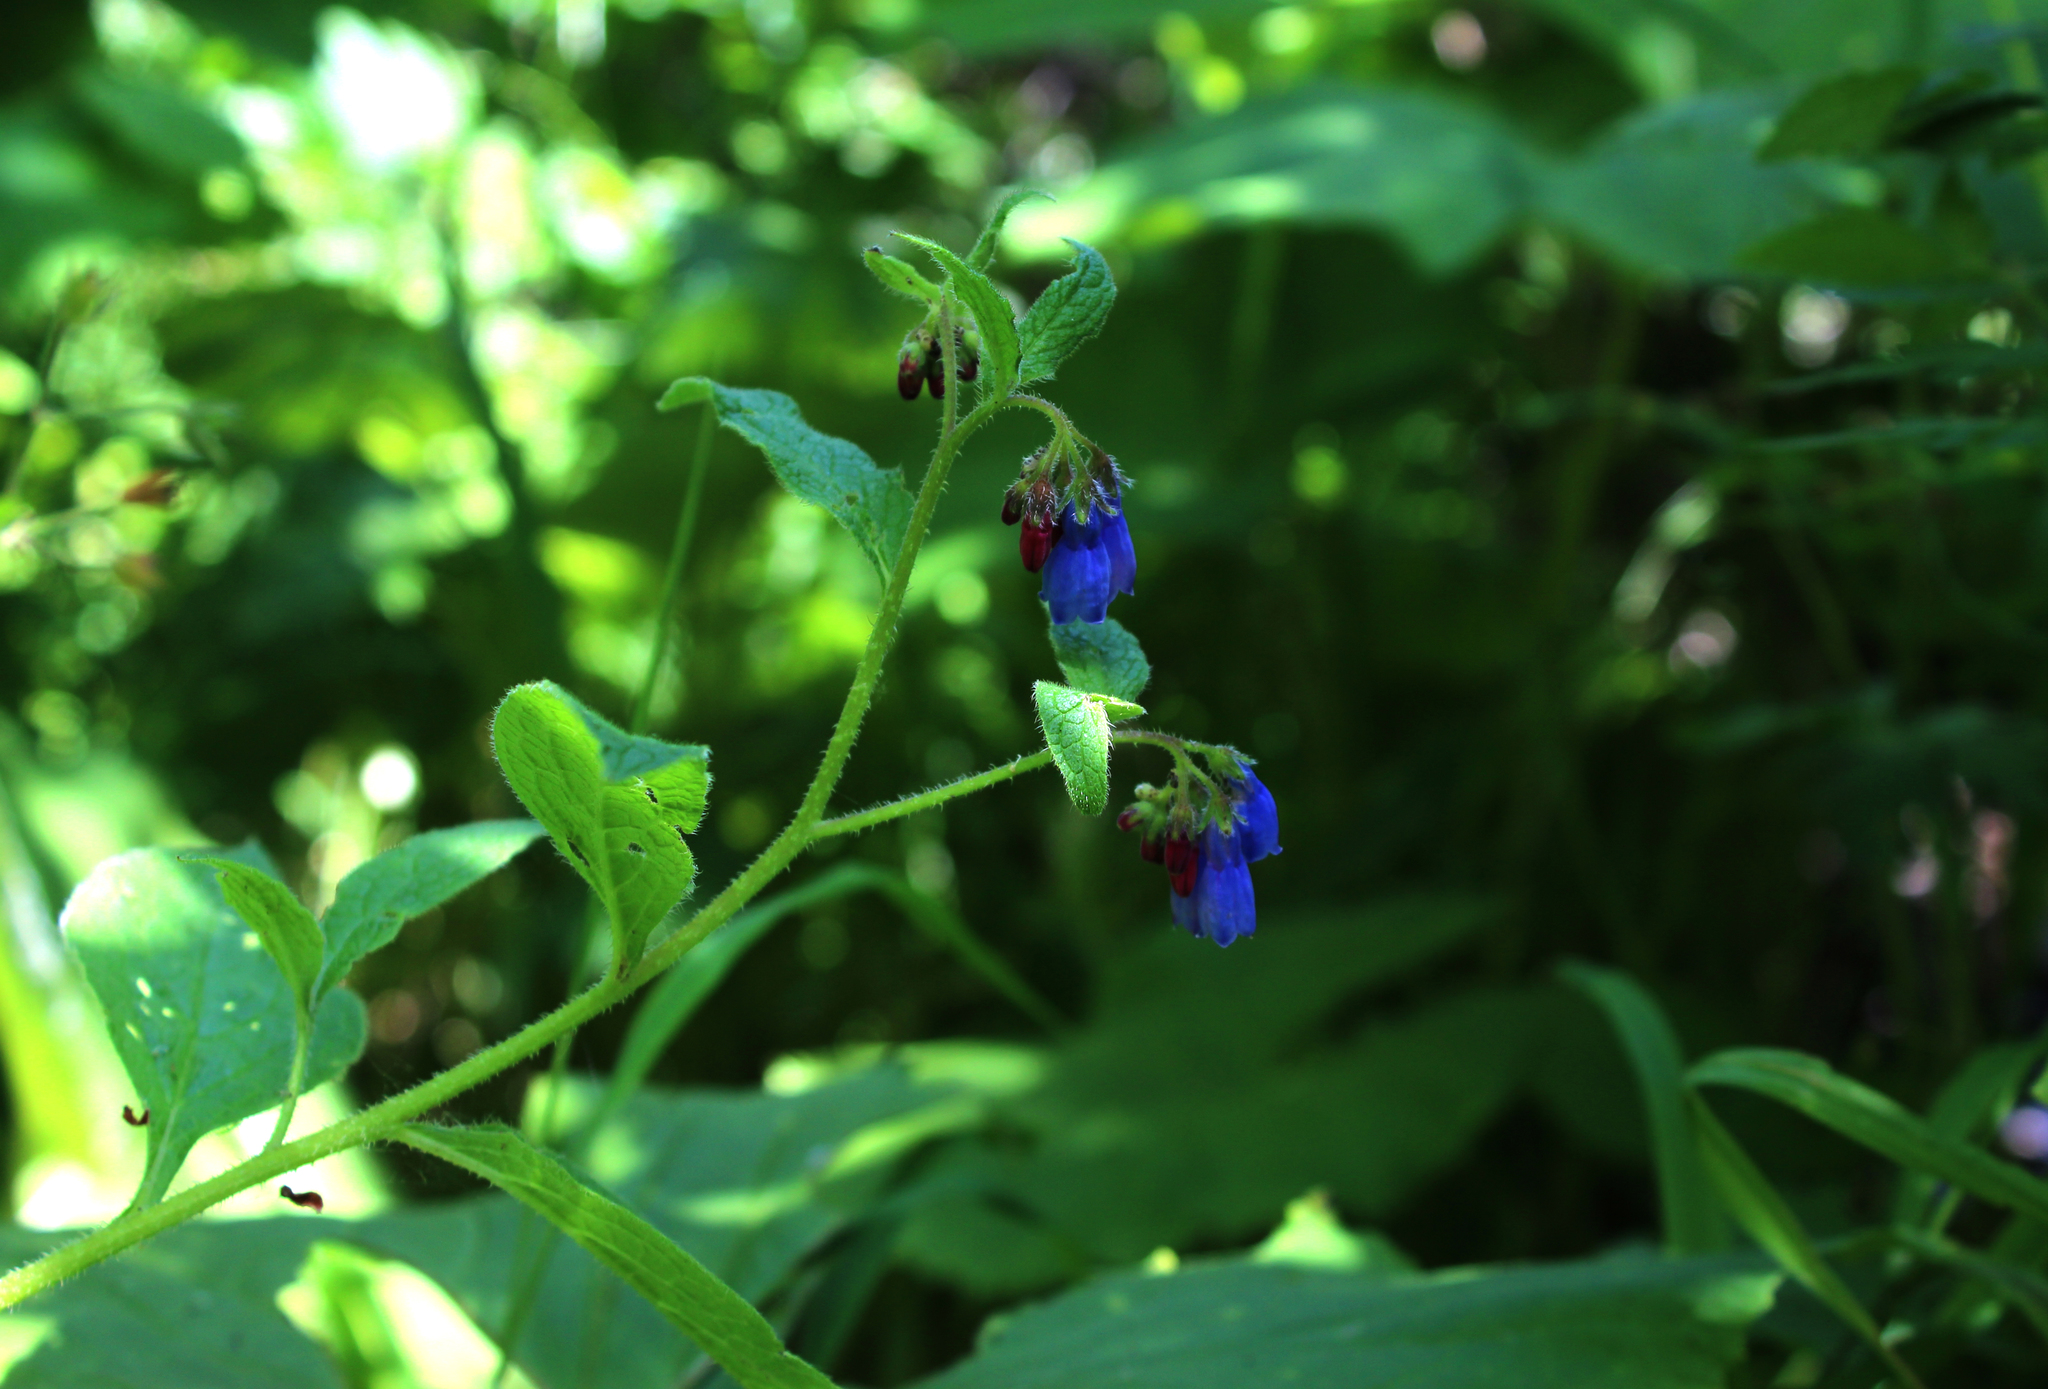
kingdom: Plantae
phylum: Tracheophyta
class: Magnoliopsida
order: Boraginales
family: Boraginaceae
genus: Symphytum
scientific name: Symphytum asperum
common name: Prickly comfrey
